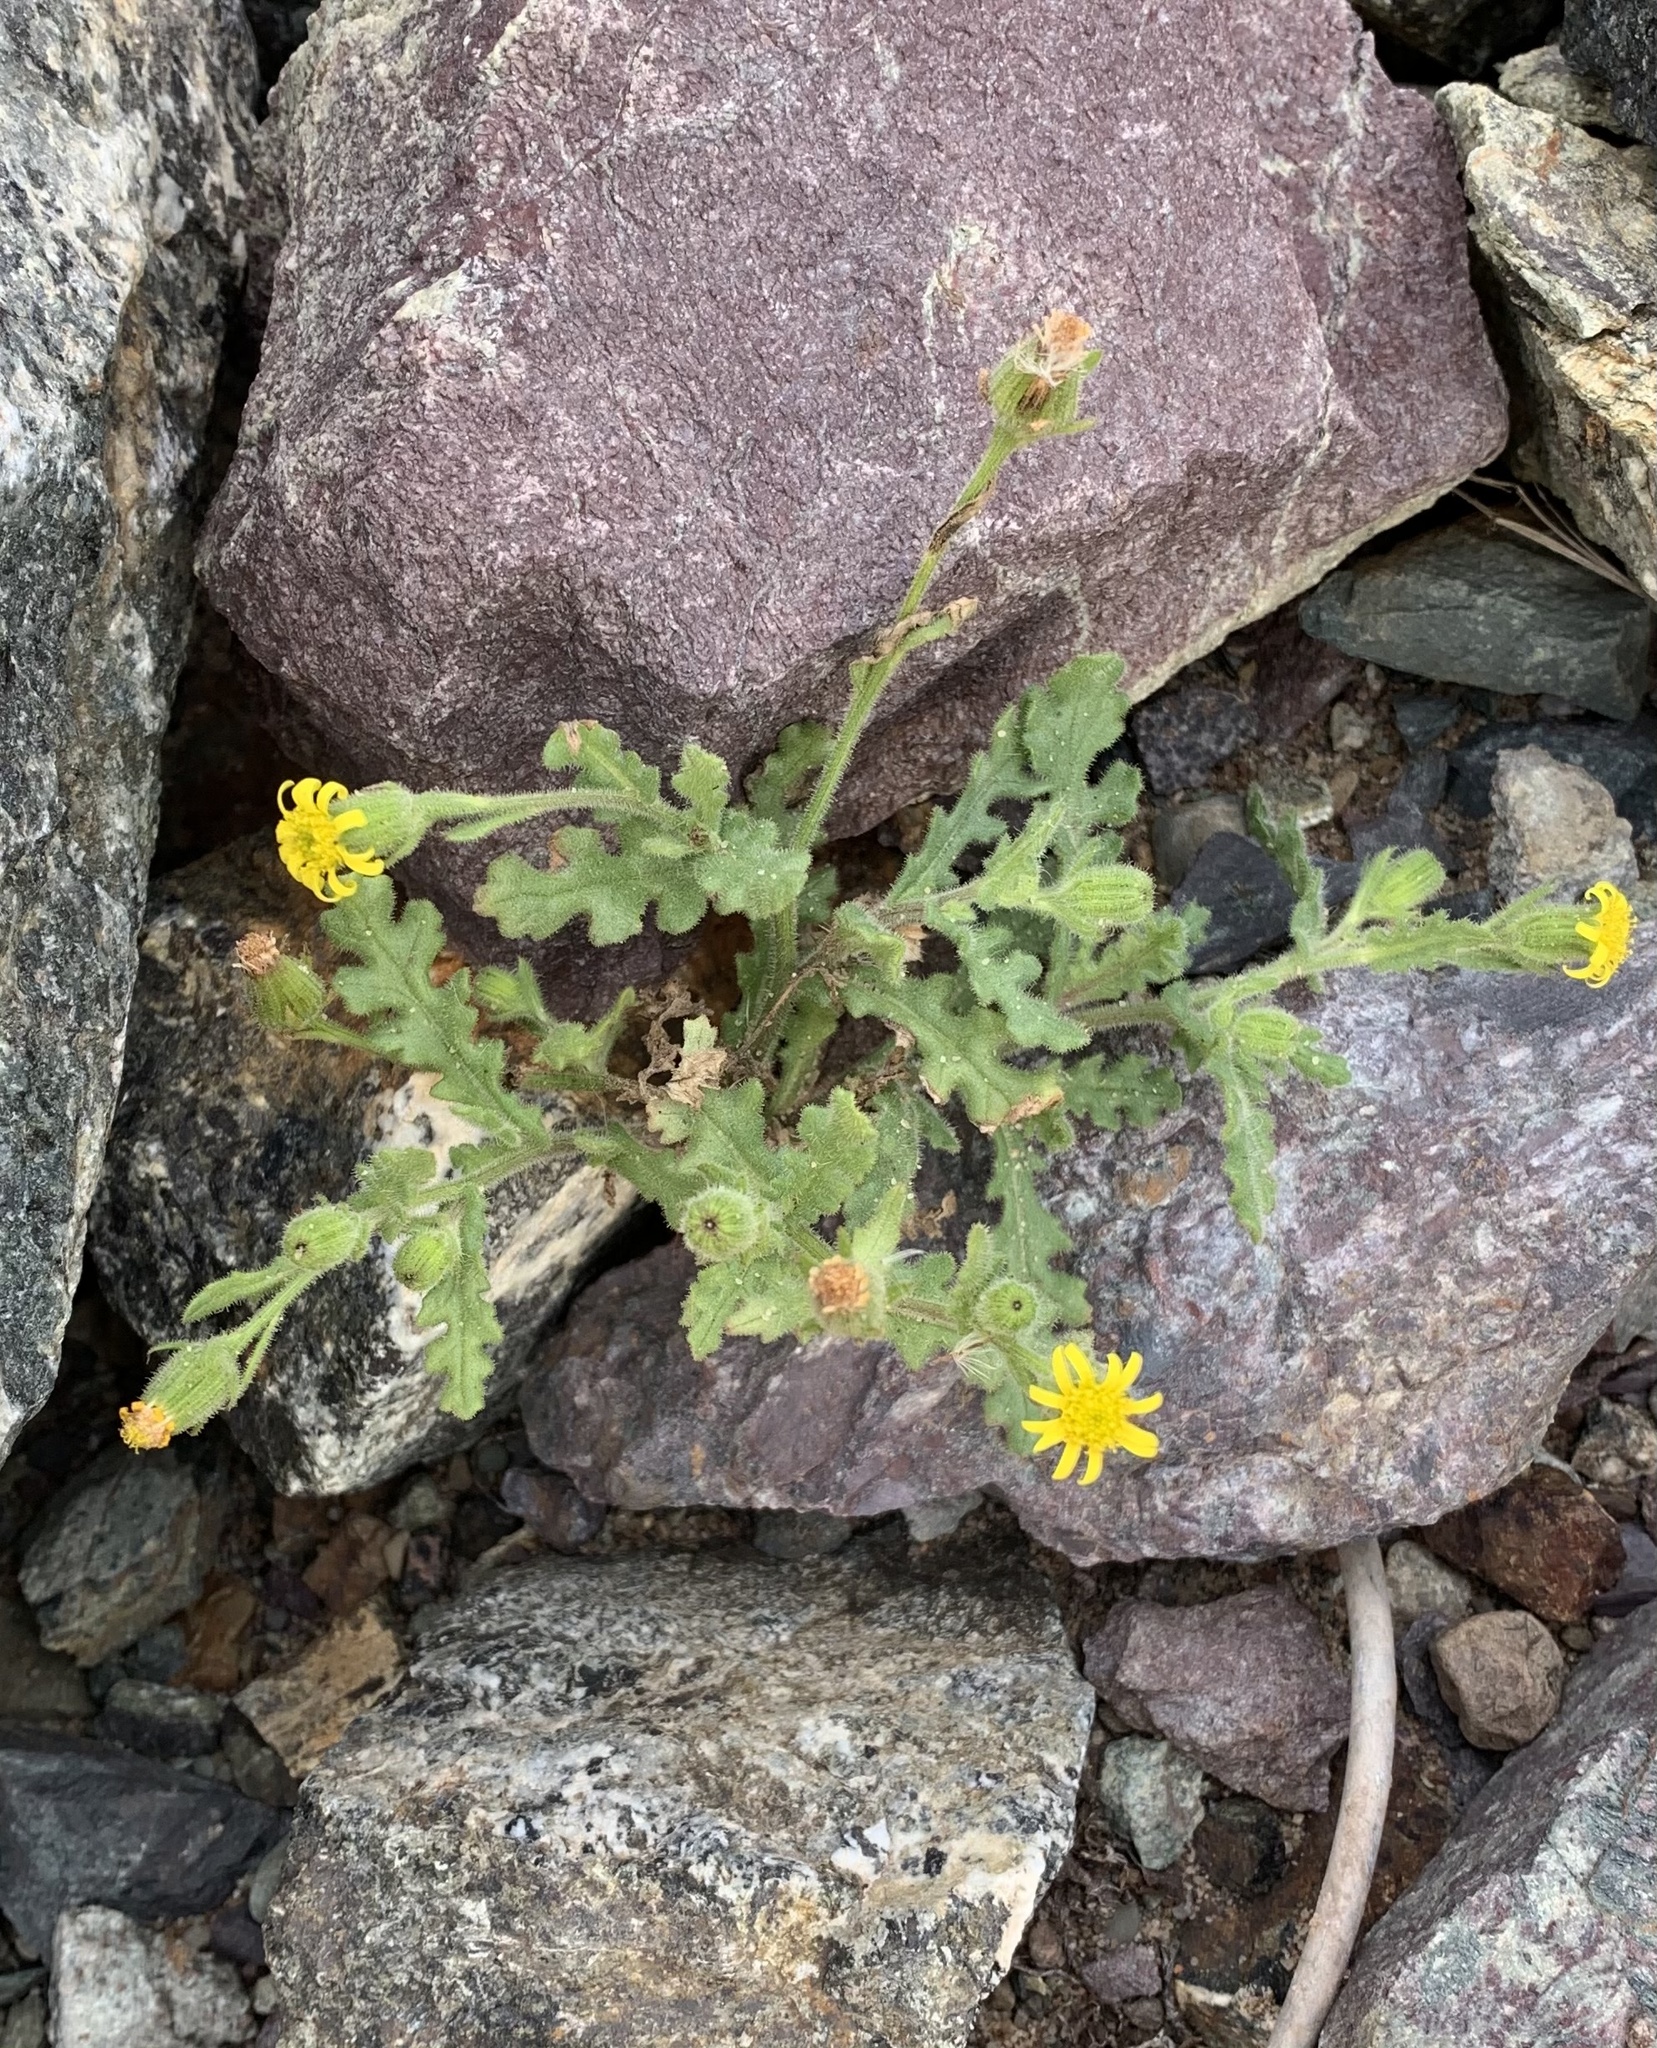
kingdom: Plantae
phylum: Tracheophyta
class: Magnoliopsida
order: Asterales
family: Asteraceae
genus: Senecio
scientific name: Senecio viscosus
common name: Sticky groundsel
